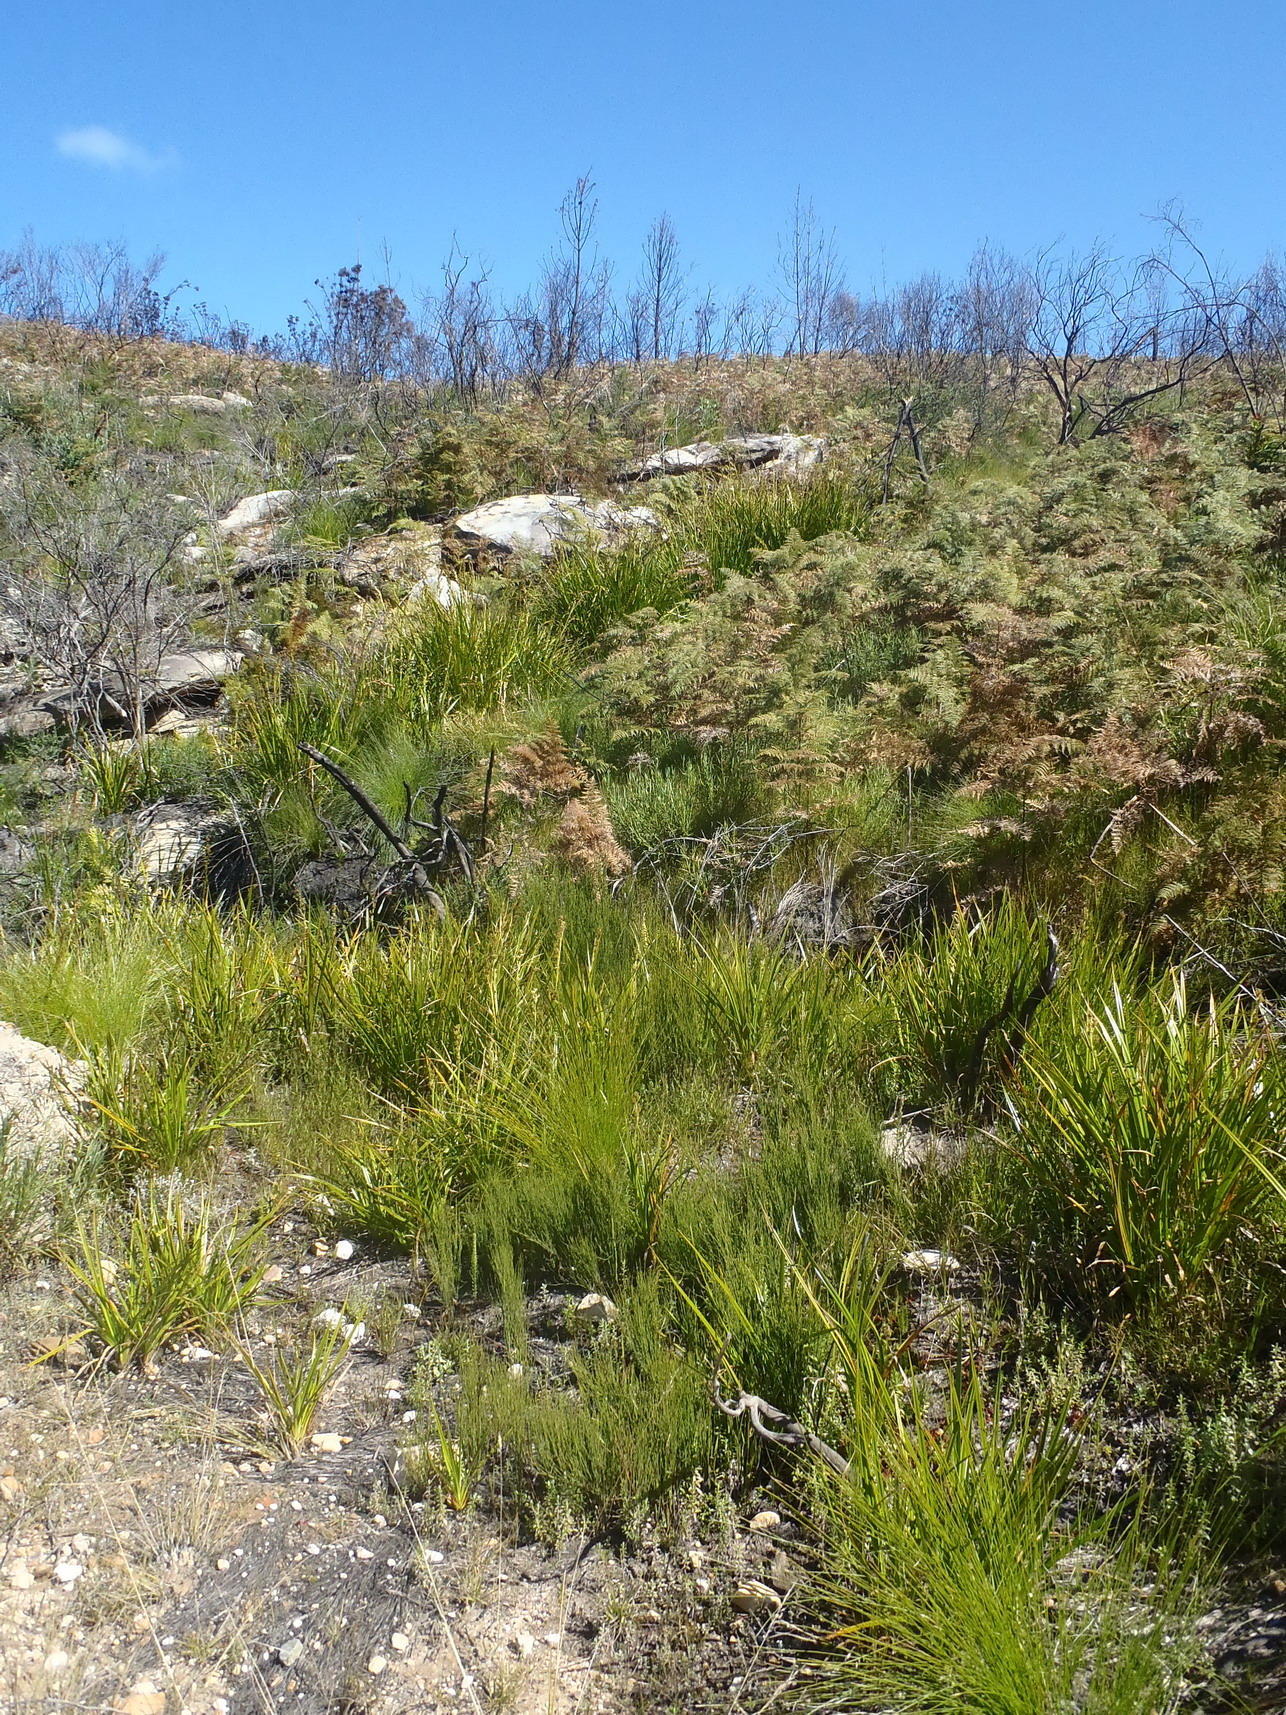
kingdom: Plantae
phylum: Tracheophyta
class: Liliopsida
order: Poales
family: Cyperaceae
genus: Carpha
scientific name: Carpha glomerata
